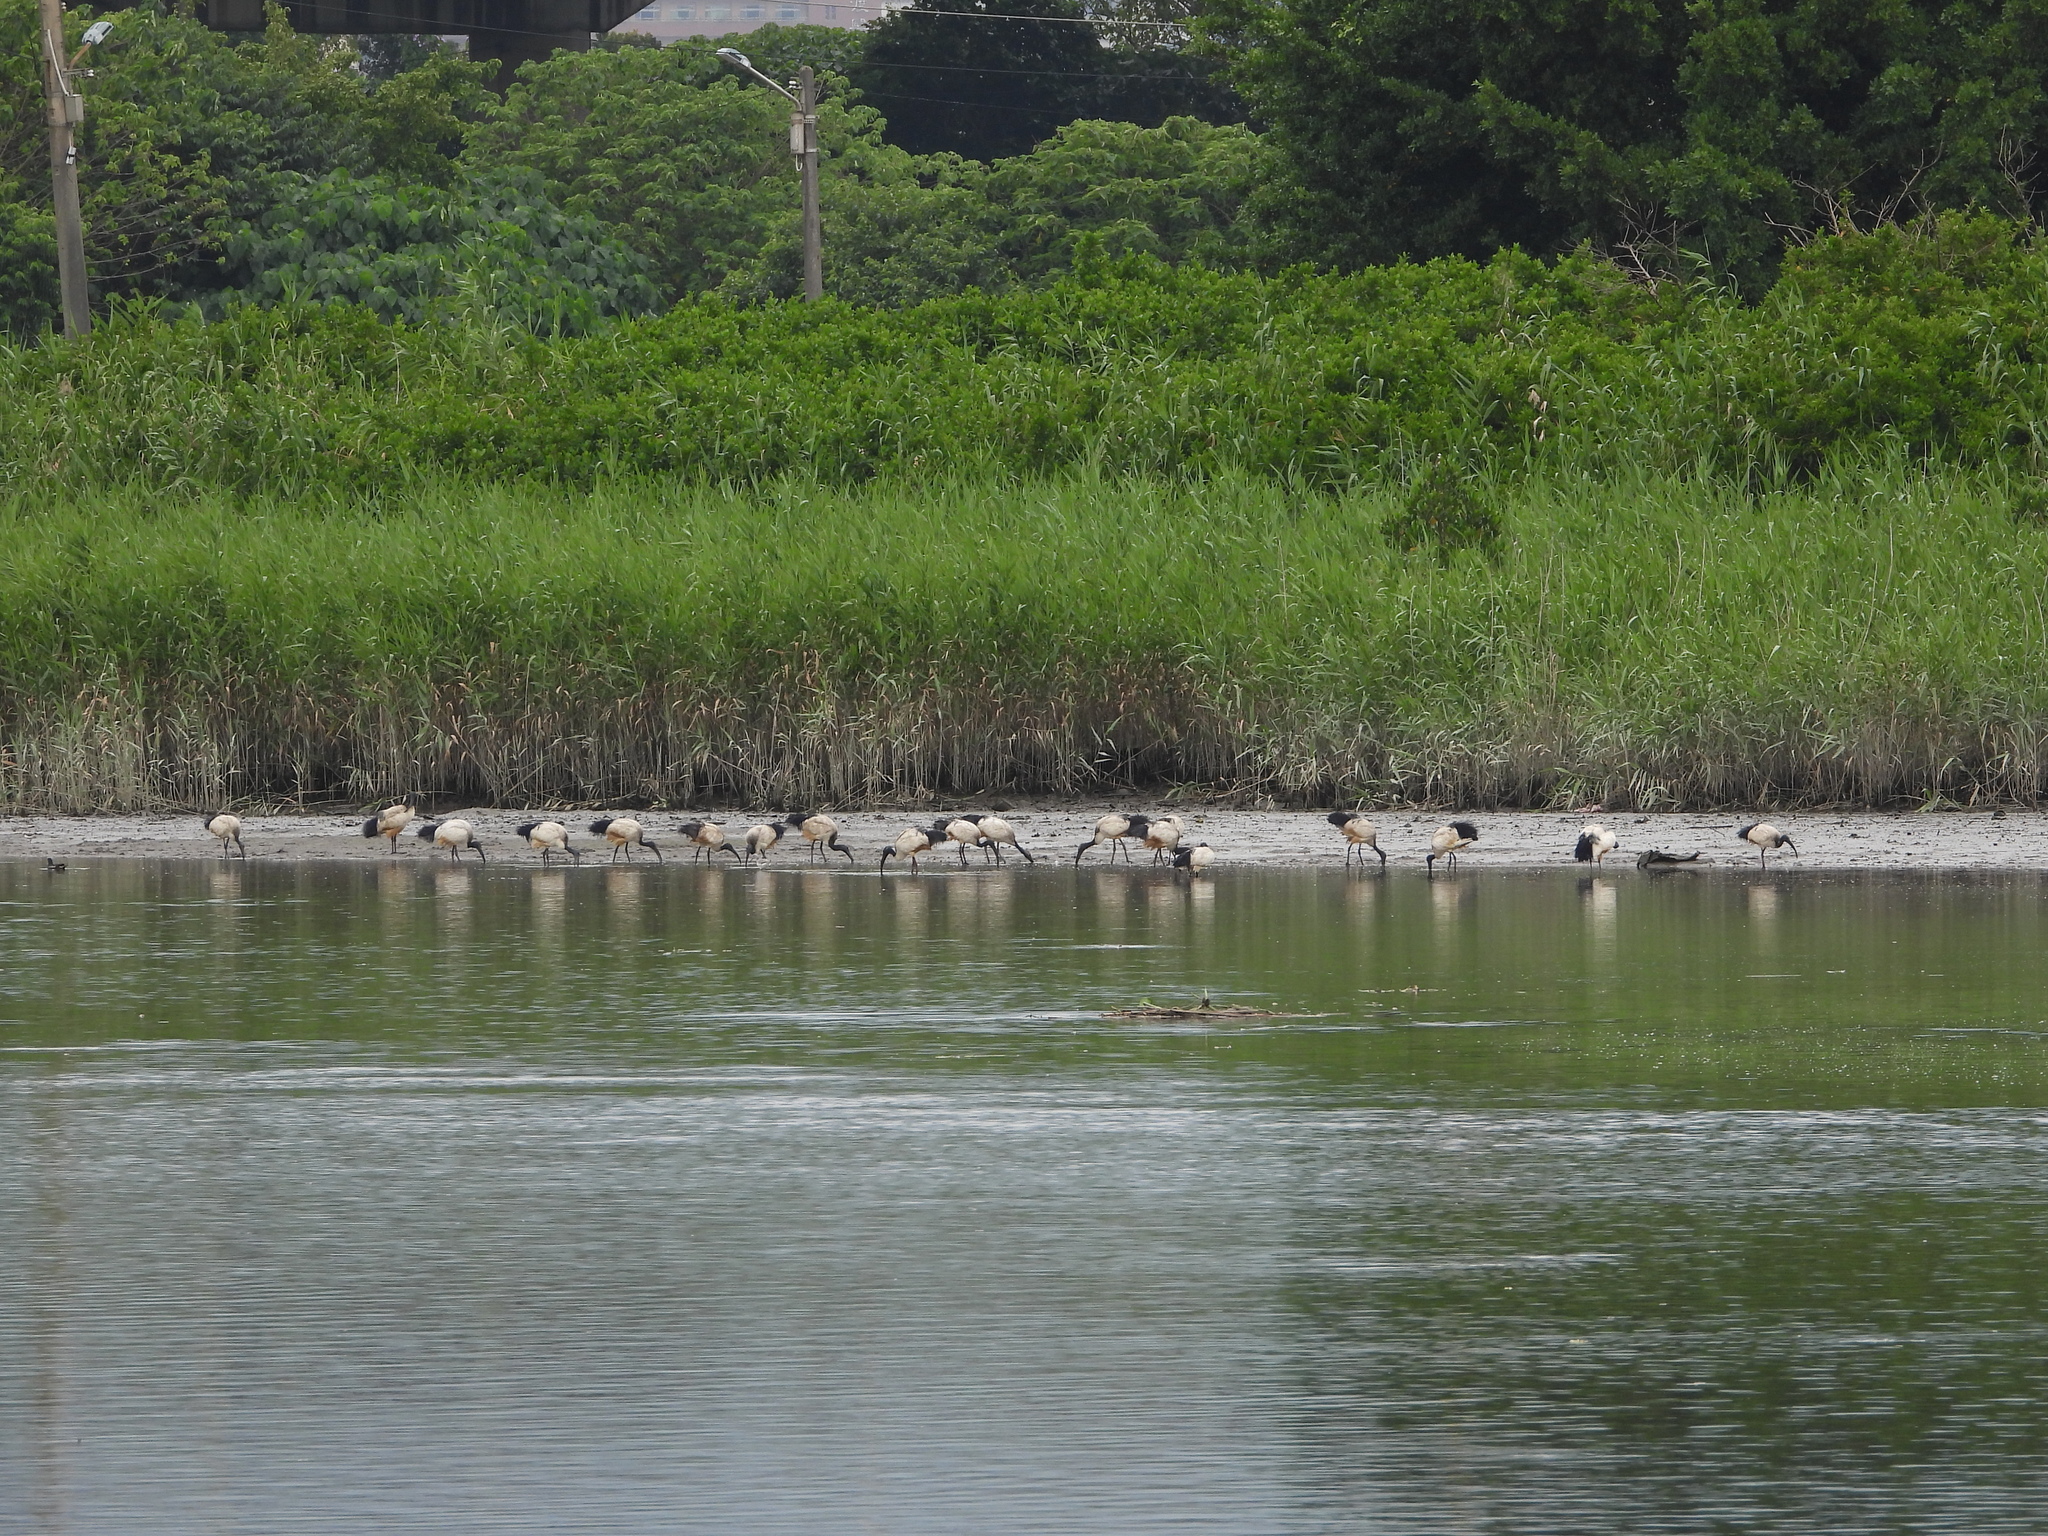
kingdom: Animalia
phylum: Chordata
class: Aves
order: Pelecaniformes
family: Threskiornithidae
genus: Threskiornis
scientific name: Threskiornis aethiopicus
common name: Sacred ibis
